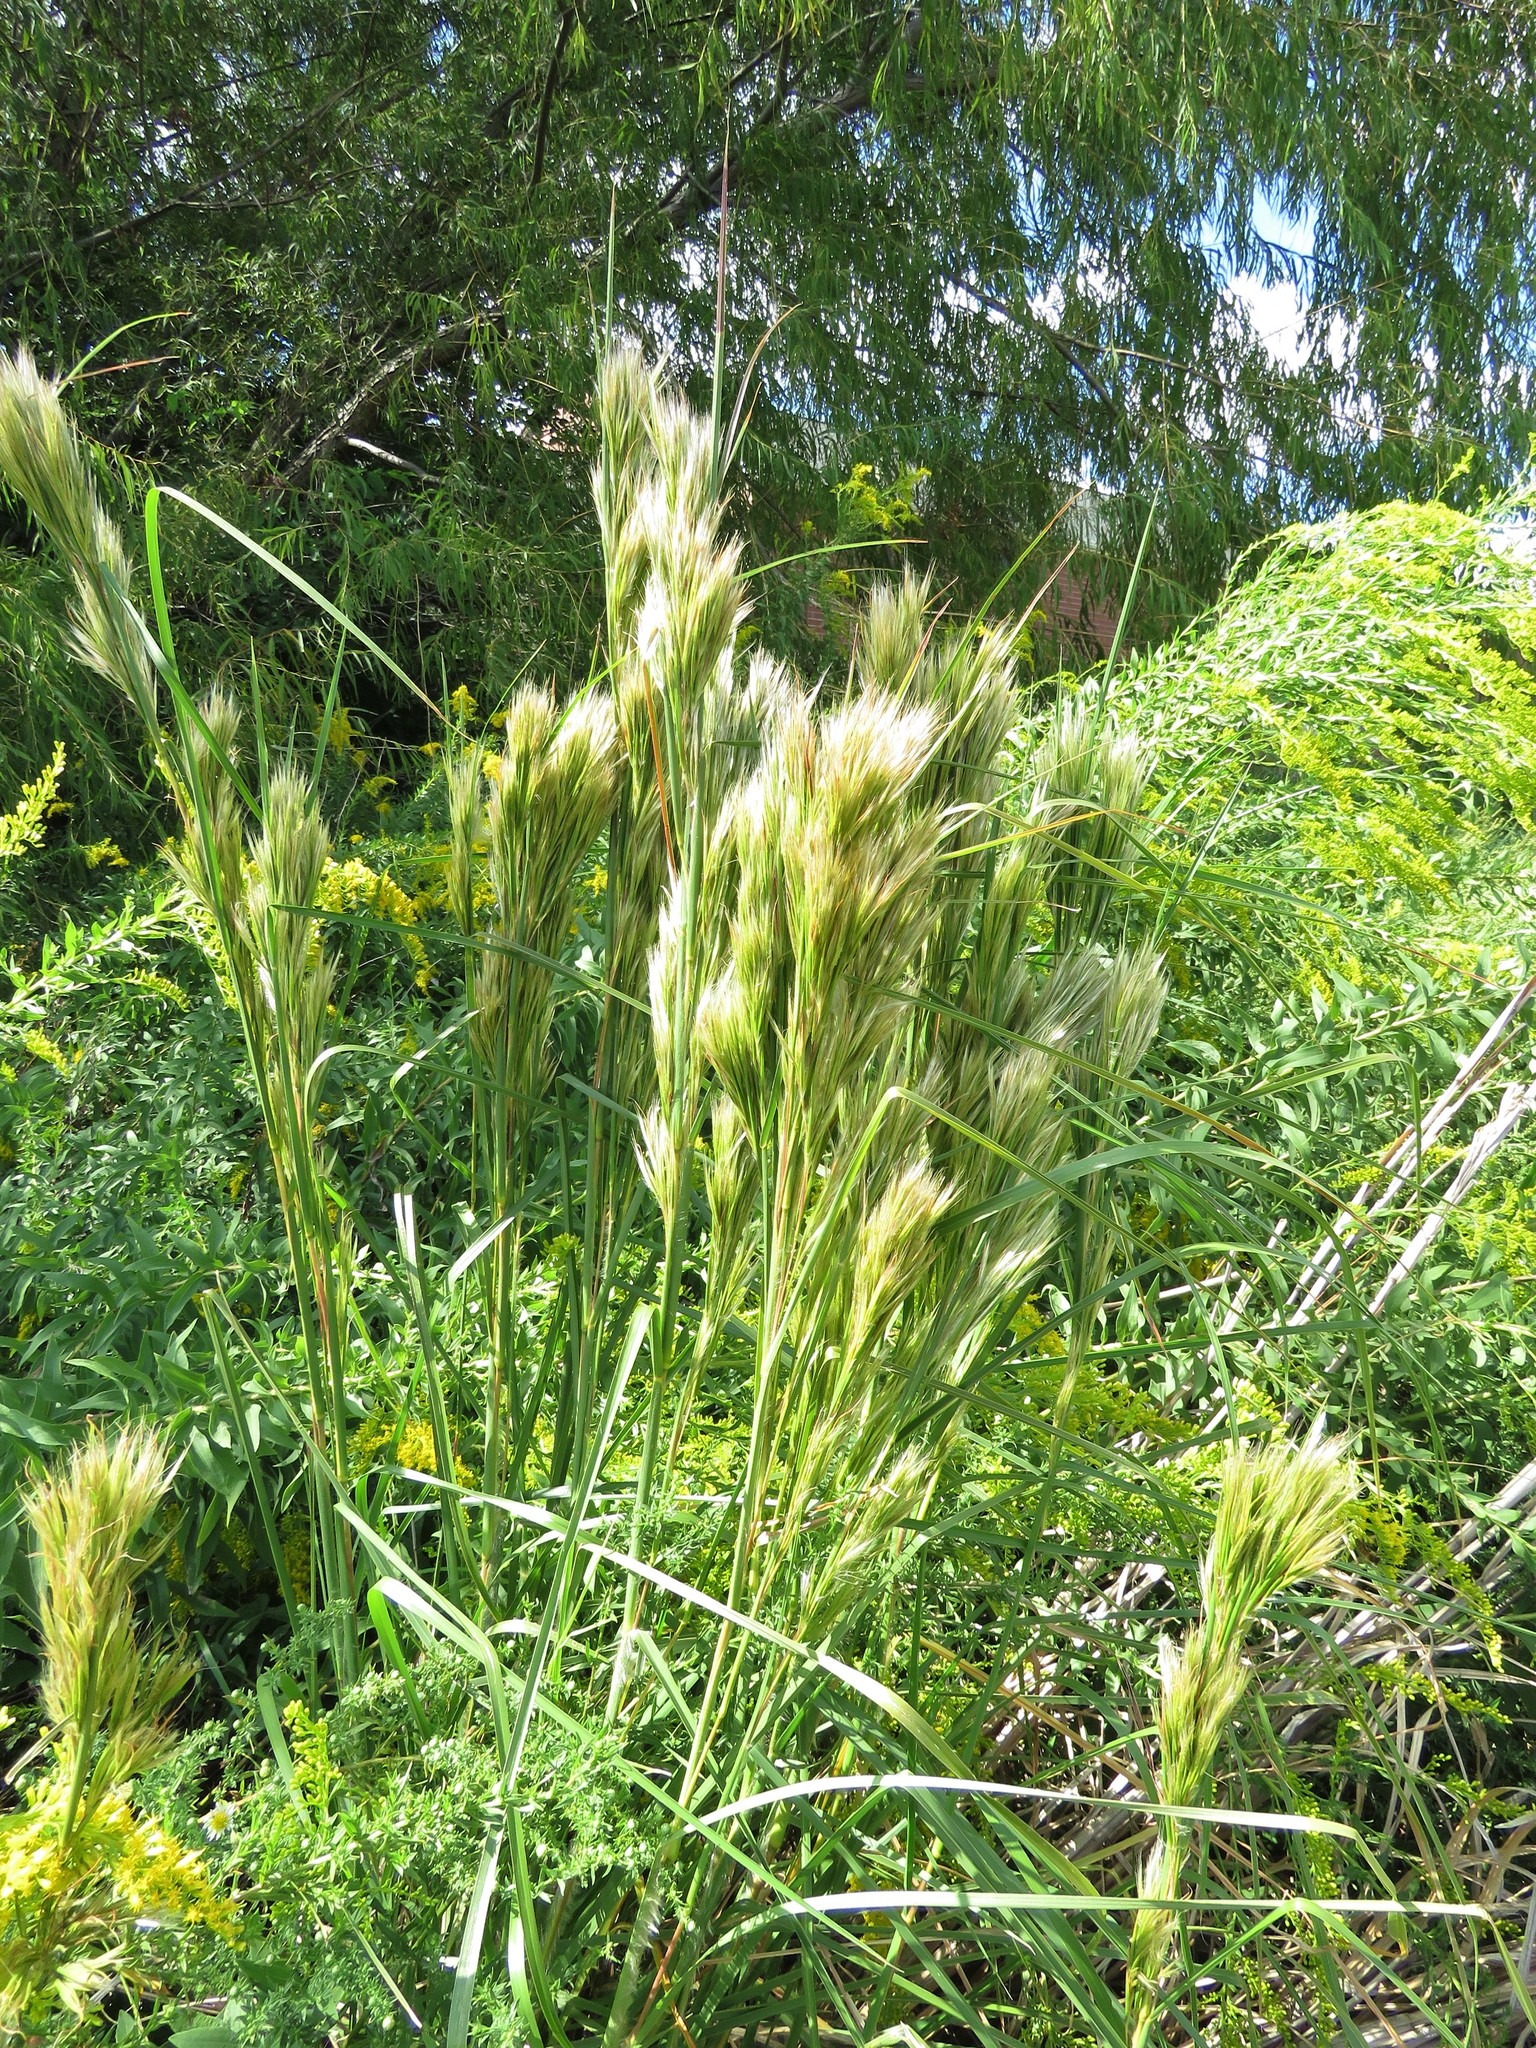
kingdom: Plantae
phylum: Tracheophyta
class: Liliopsida
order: Poales
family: Poaceae
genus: Andropogon
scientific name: Andropogon tenuispatheus
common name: Bushy bluestem
